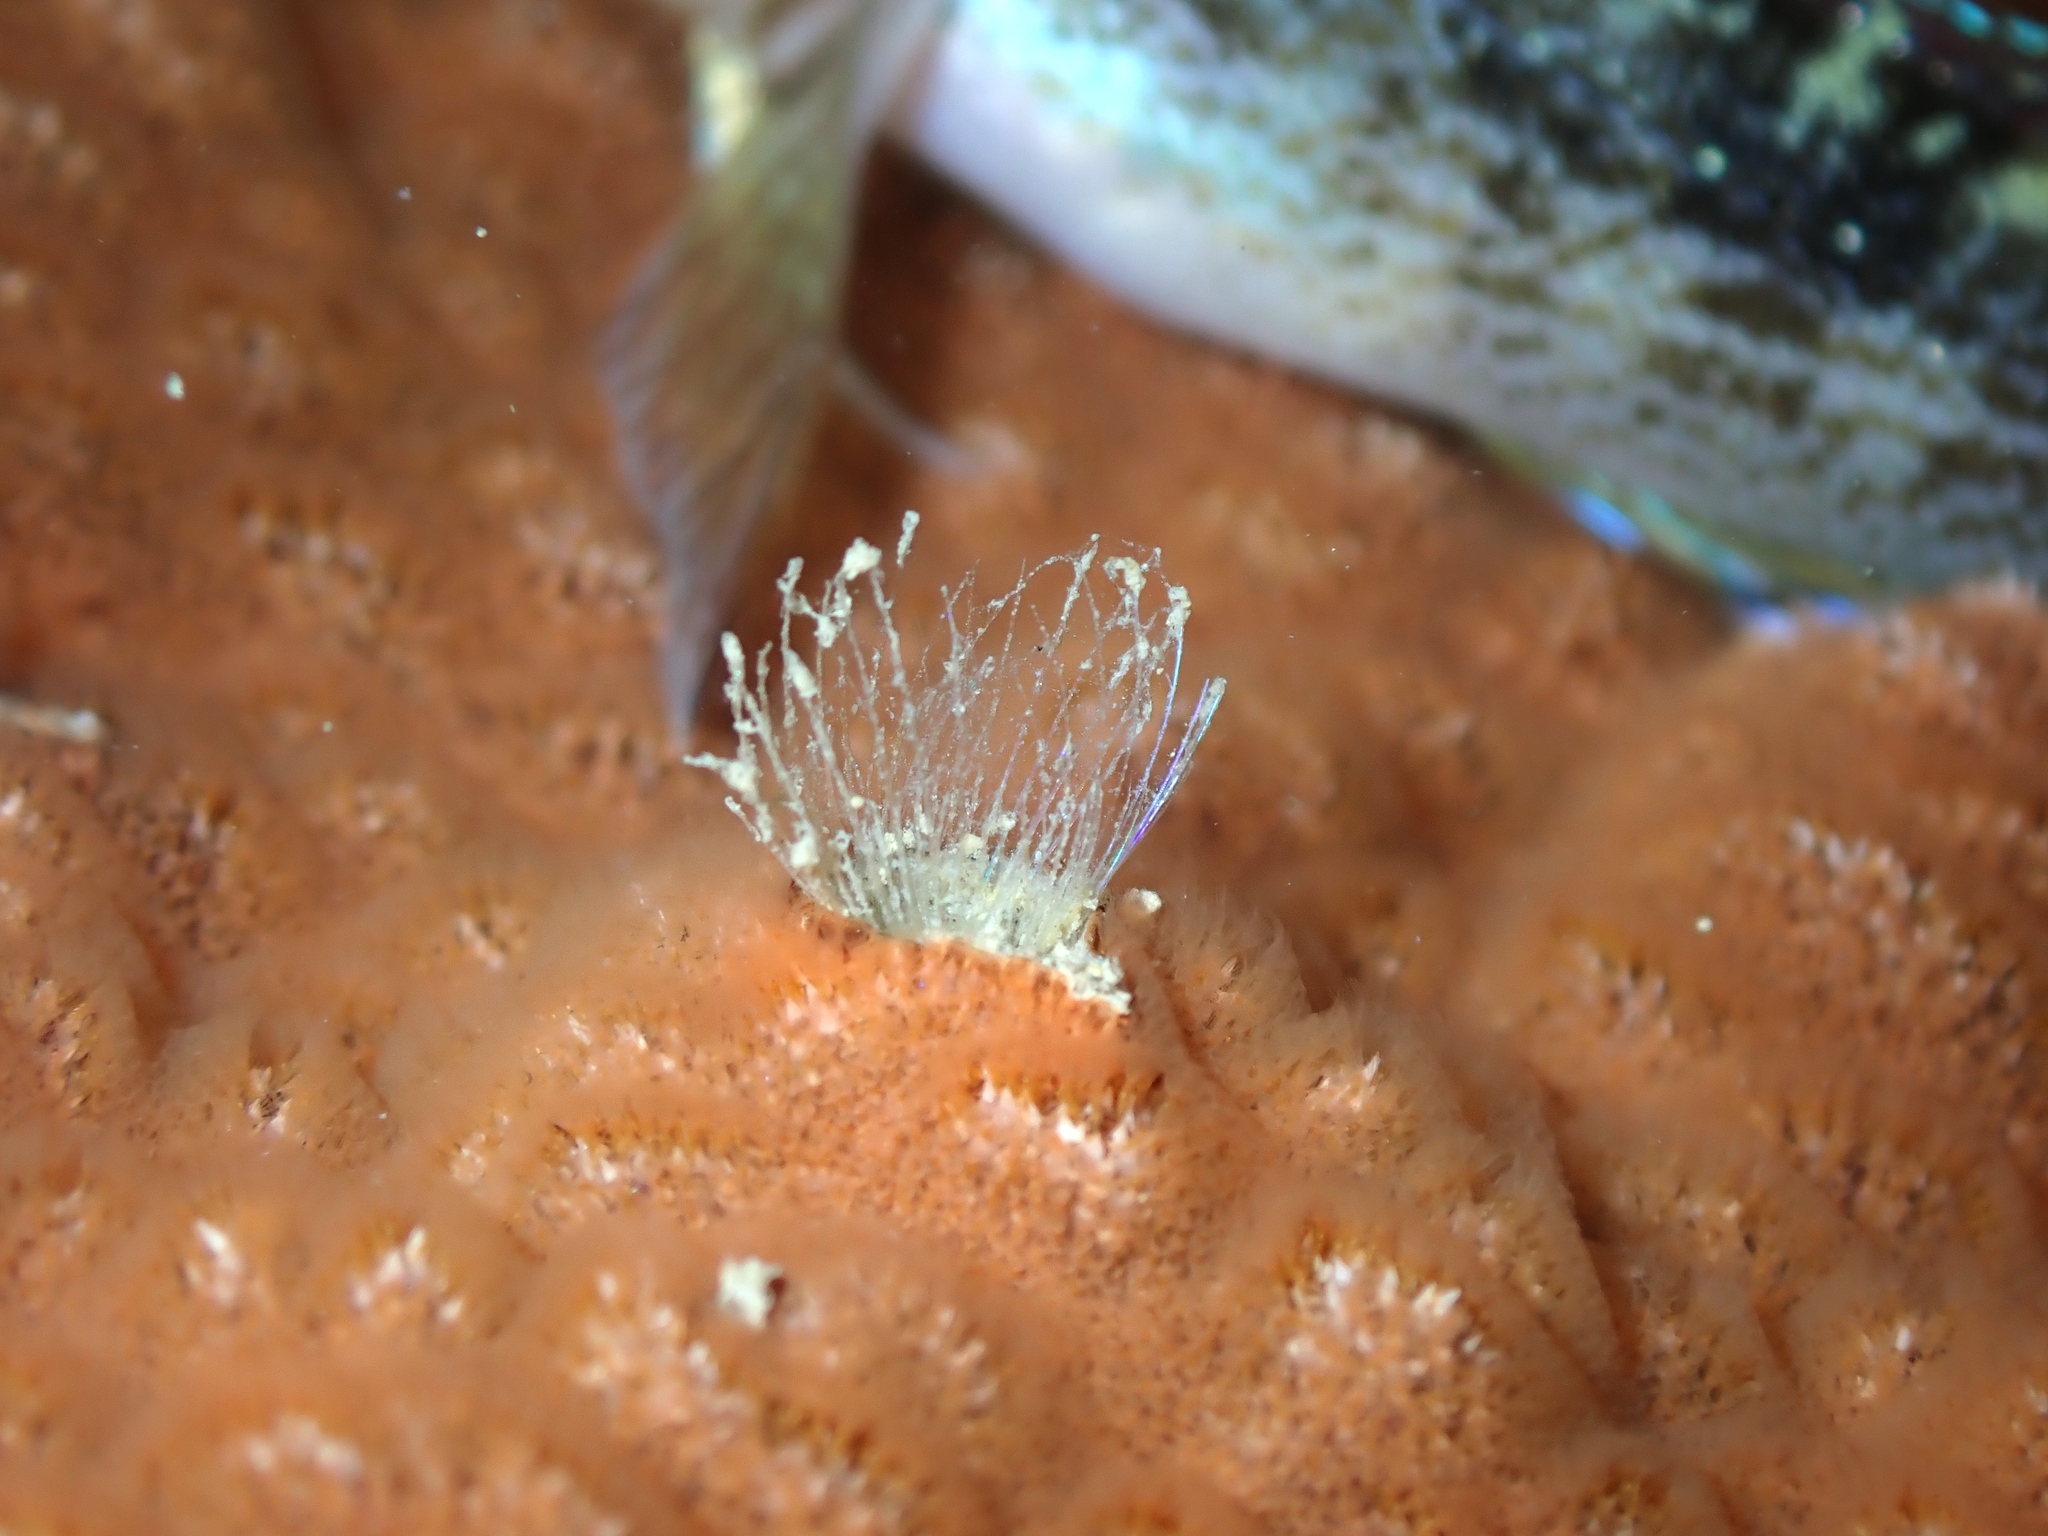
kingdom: Animalia
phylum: Annelida
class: Polychaeta
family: Flabelligeridae
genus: Daylithos
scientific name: Daylithos dieteri
